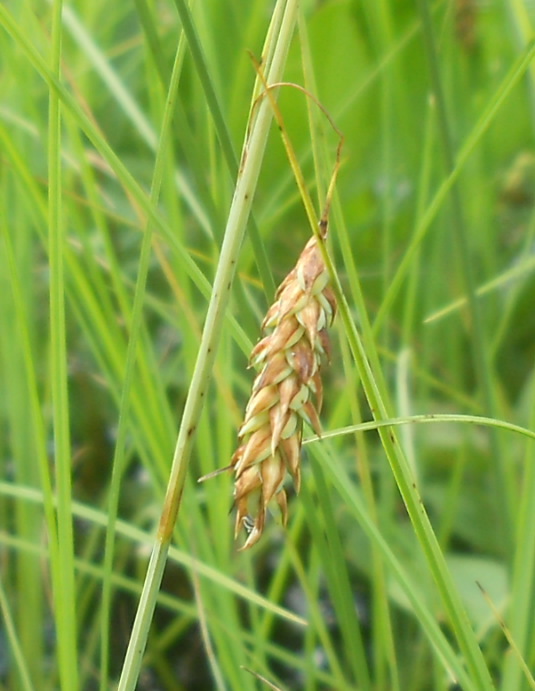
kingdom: Plantae
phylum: Tracheophyta
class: Liliopsida
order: Poales
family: Cyperaceae
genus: Carex
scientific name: Carex limosa
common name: Bog sedge
